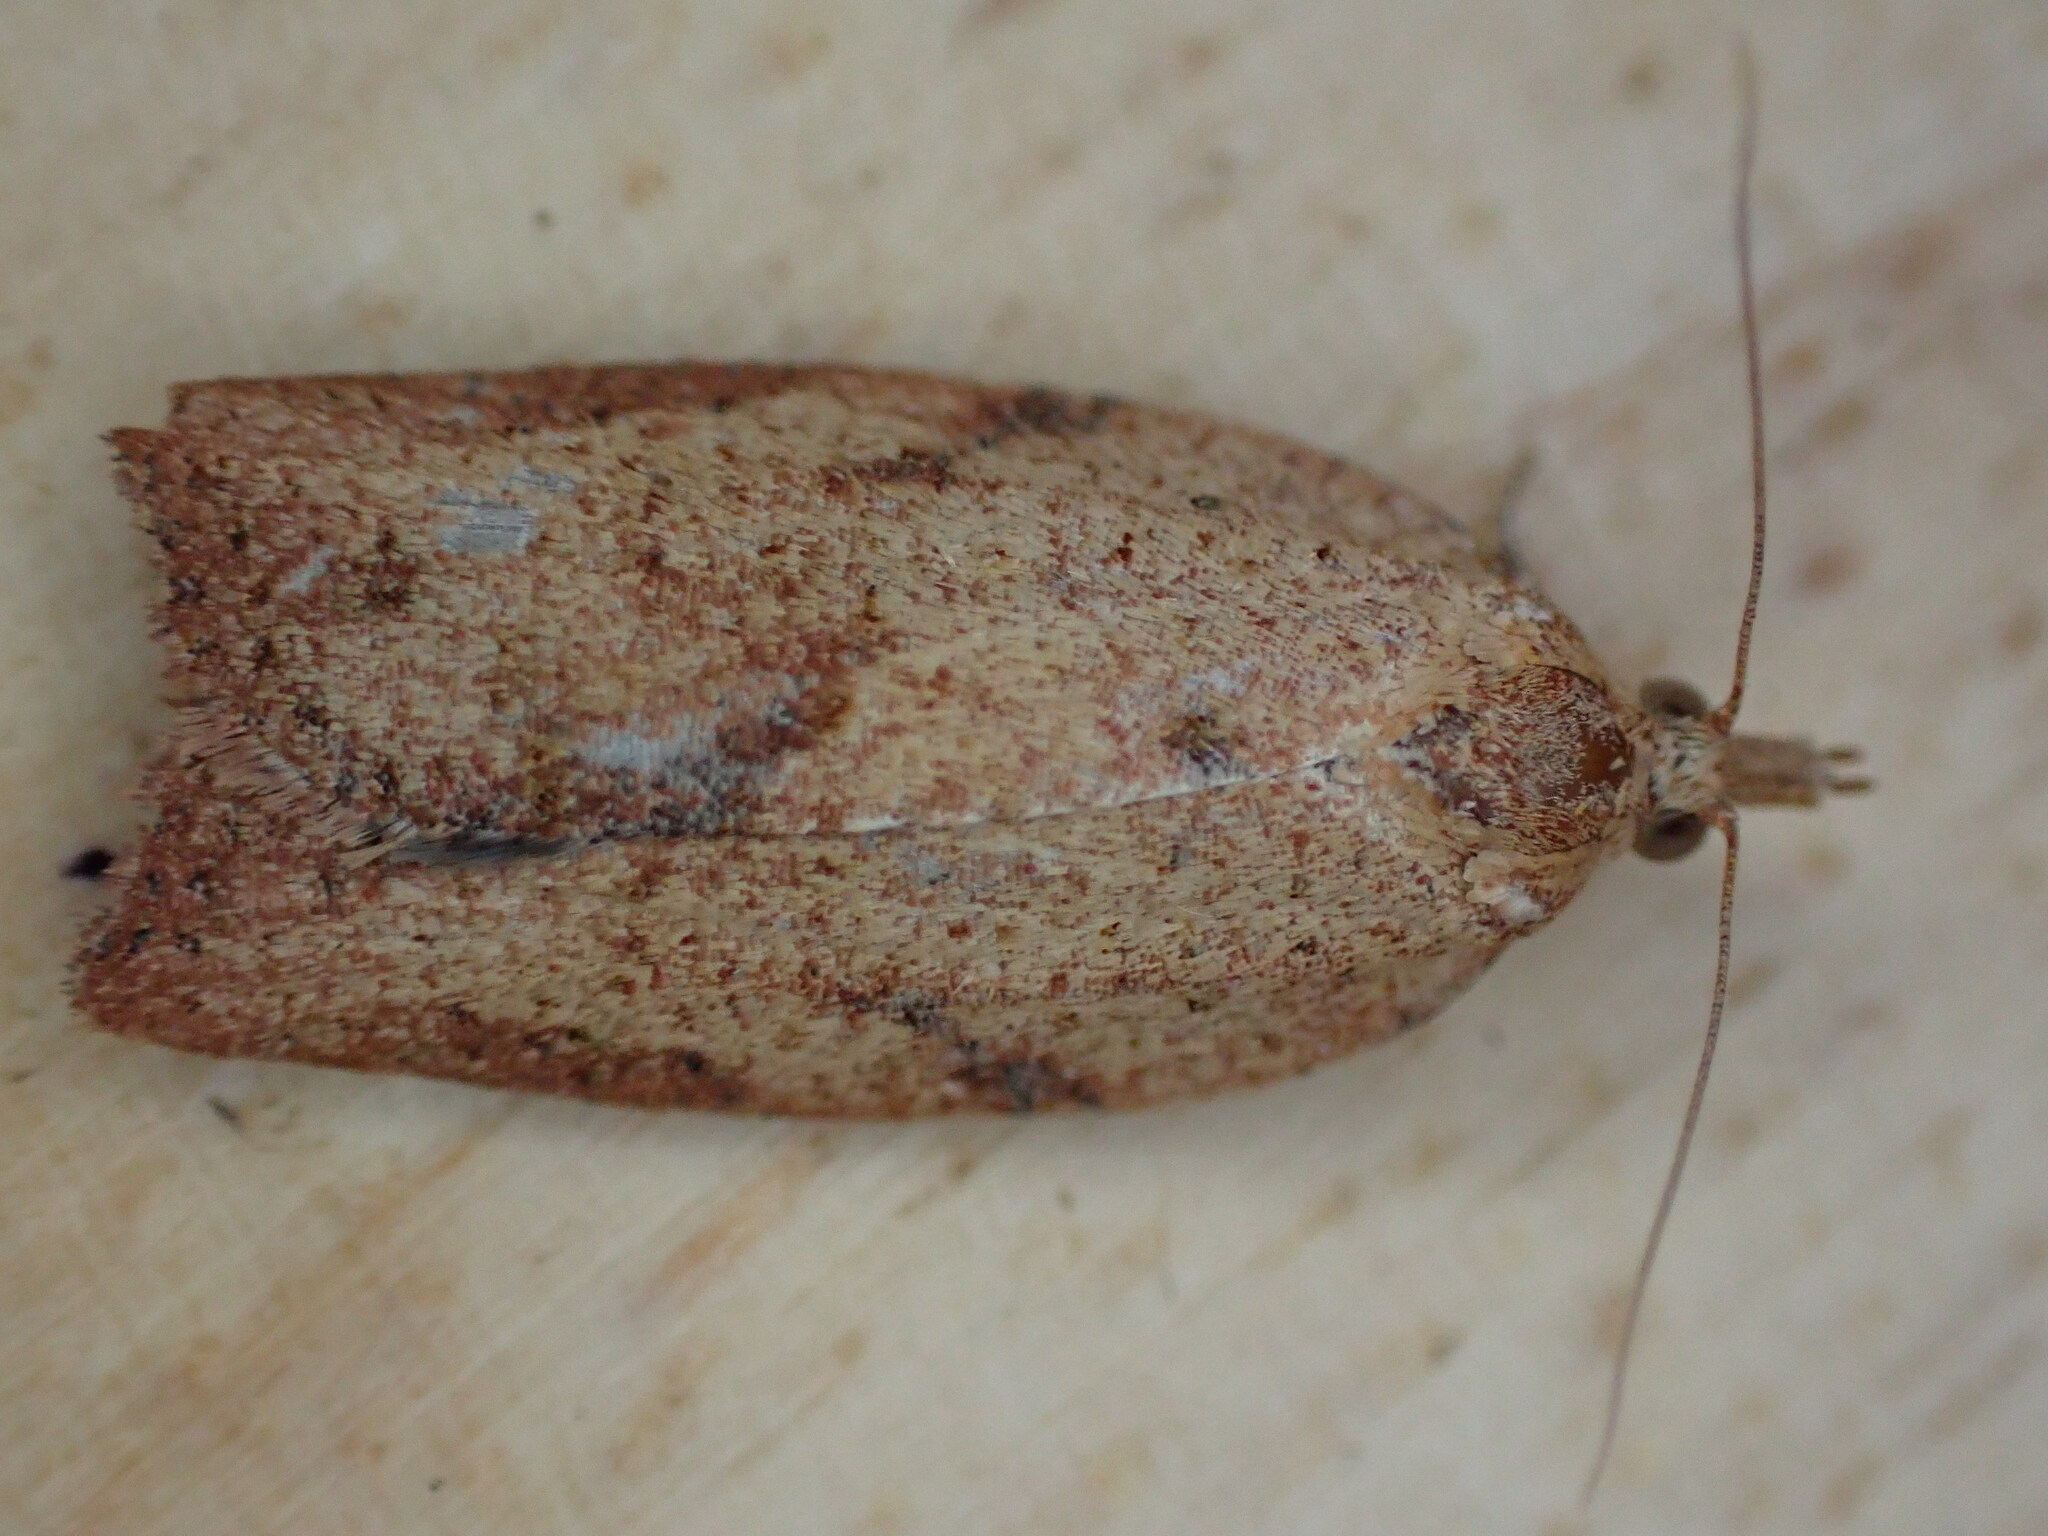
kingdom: Animalia
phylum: Arthropoda
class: Insecta
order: Lepidoptera
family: Tortricidae
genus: Epiphyas
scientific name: Epiphyas postvittana
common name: Light brown apple moth
